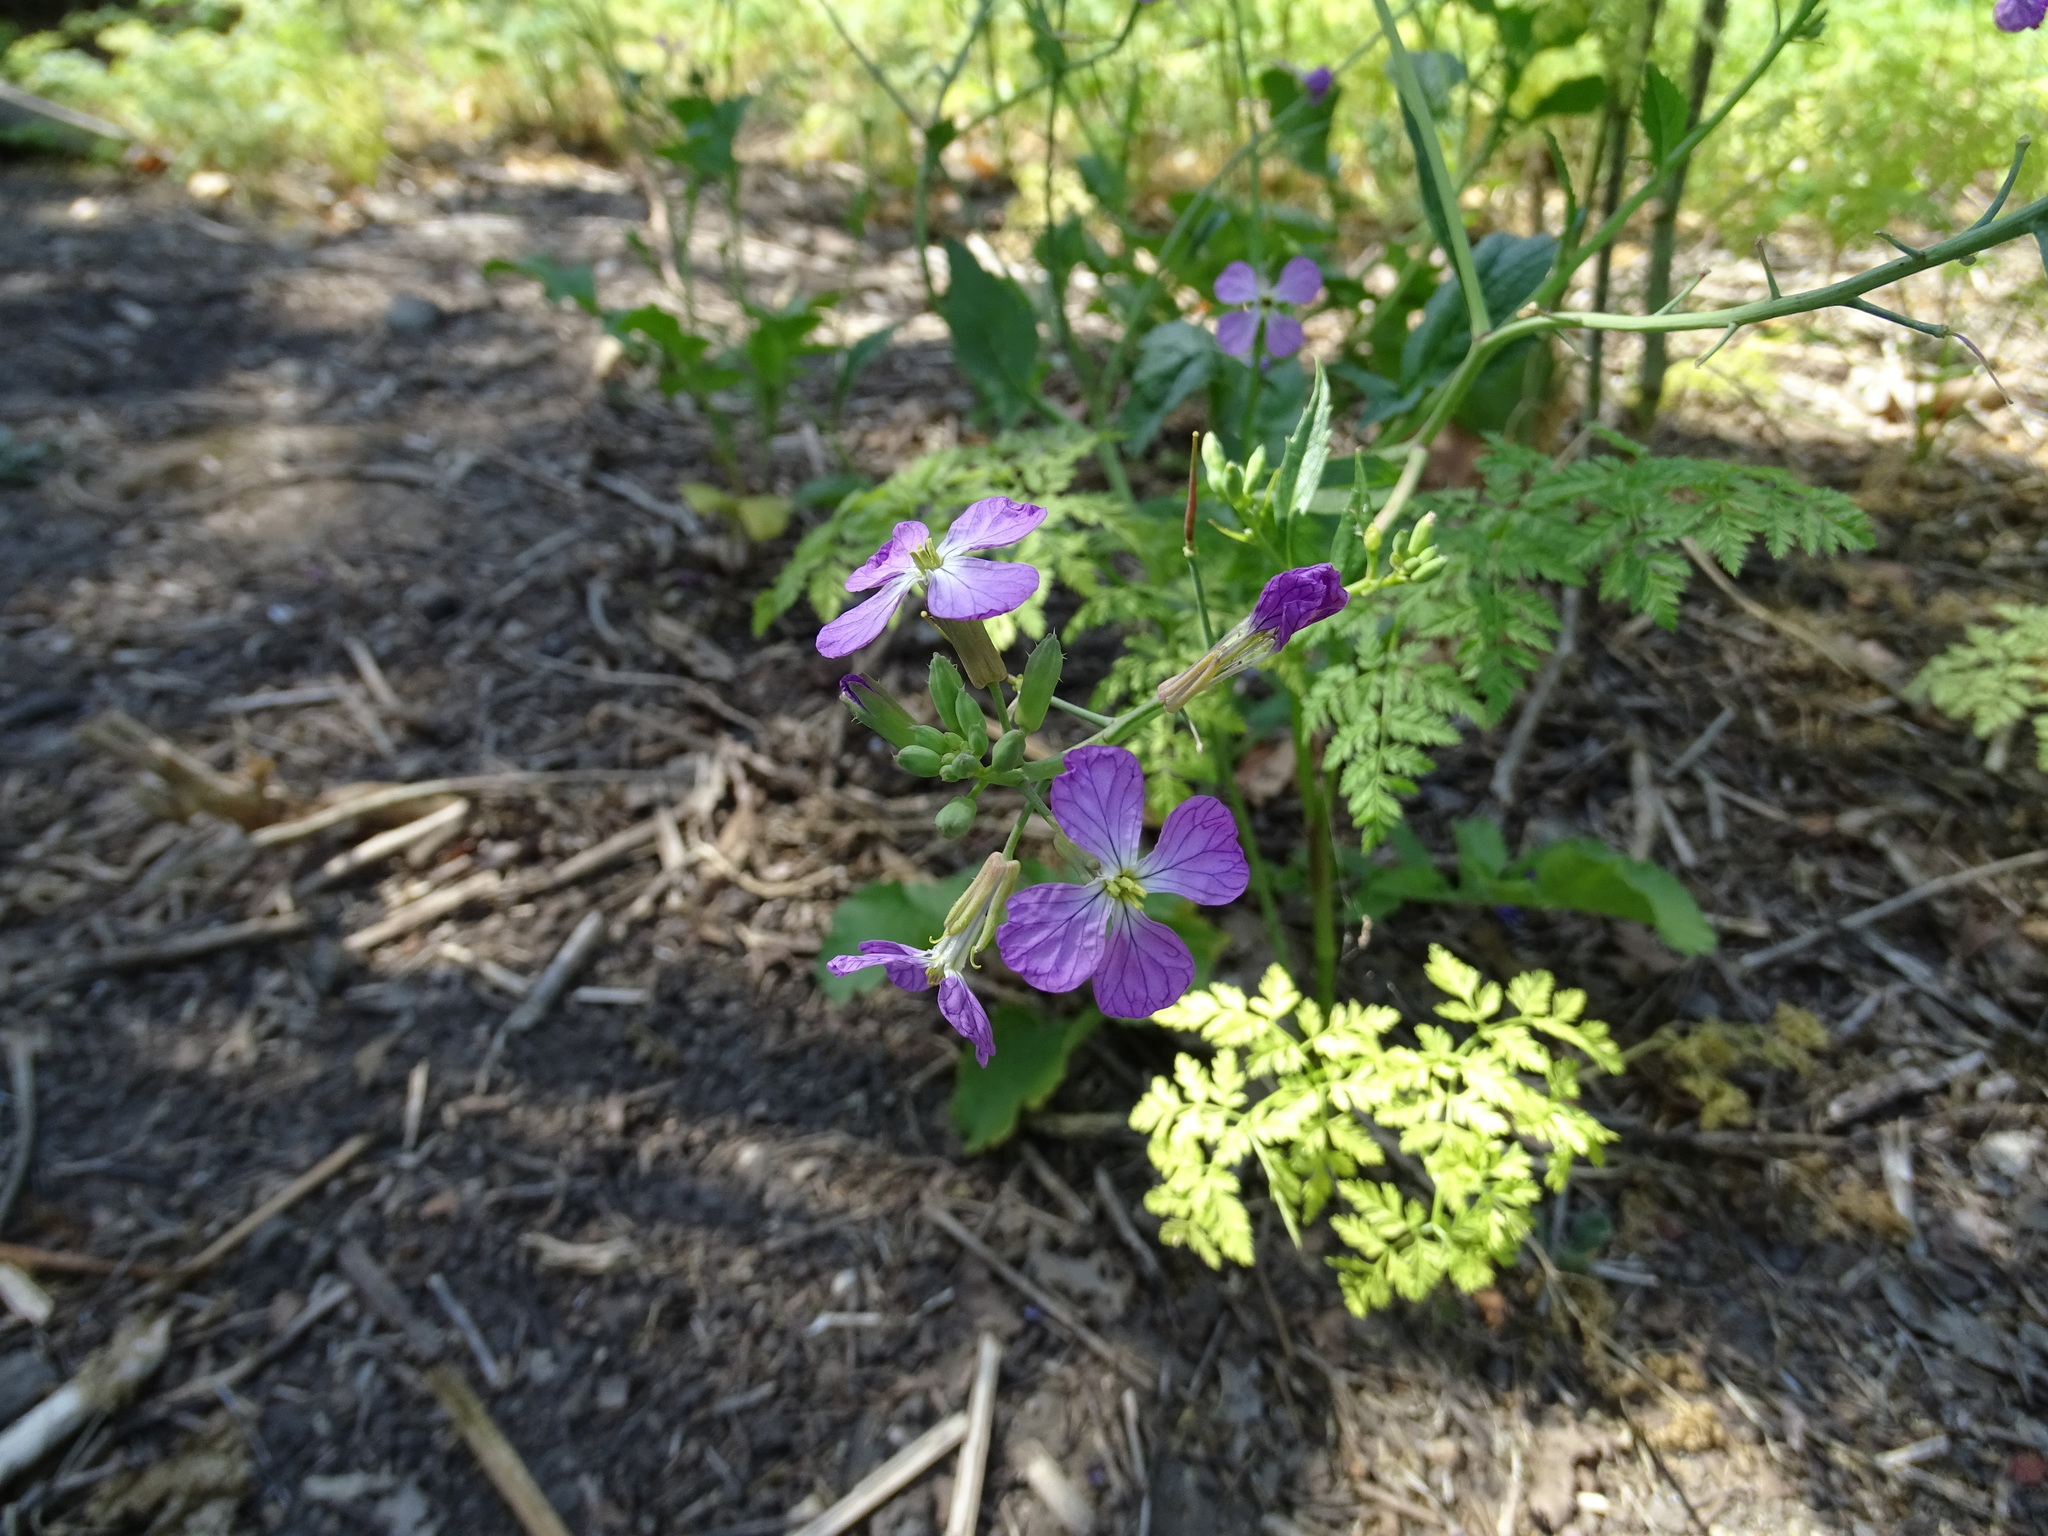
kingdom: Plantae
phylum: Tracheophyta
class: Magnoliopsida
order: Brassicales
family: Brassicaceae
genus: Raphanus
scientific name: Raphanus sativus
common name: Cultivated radish
